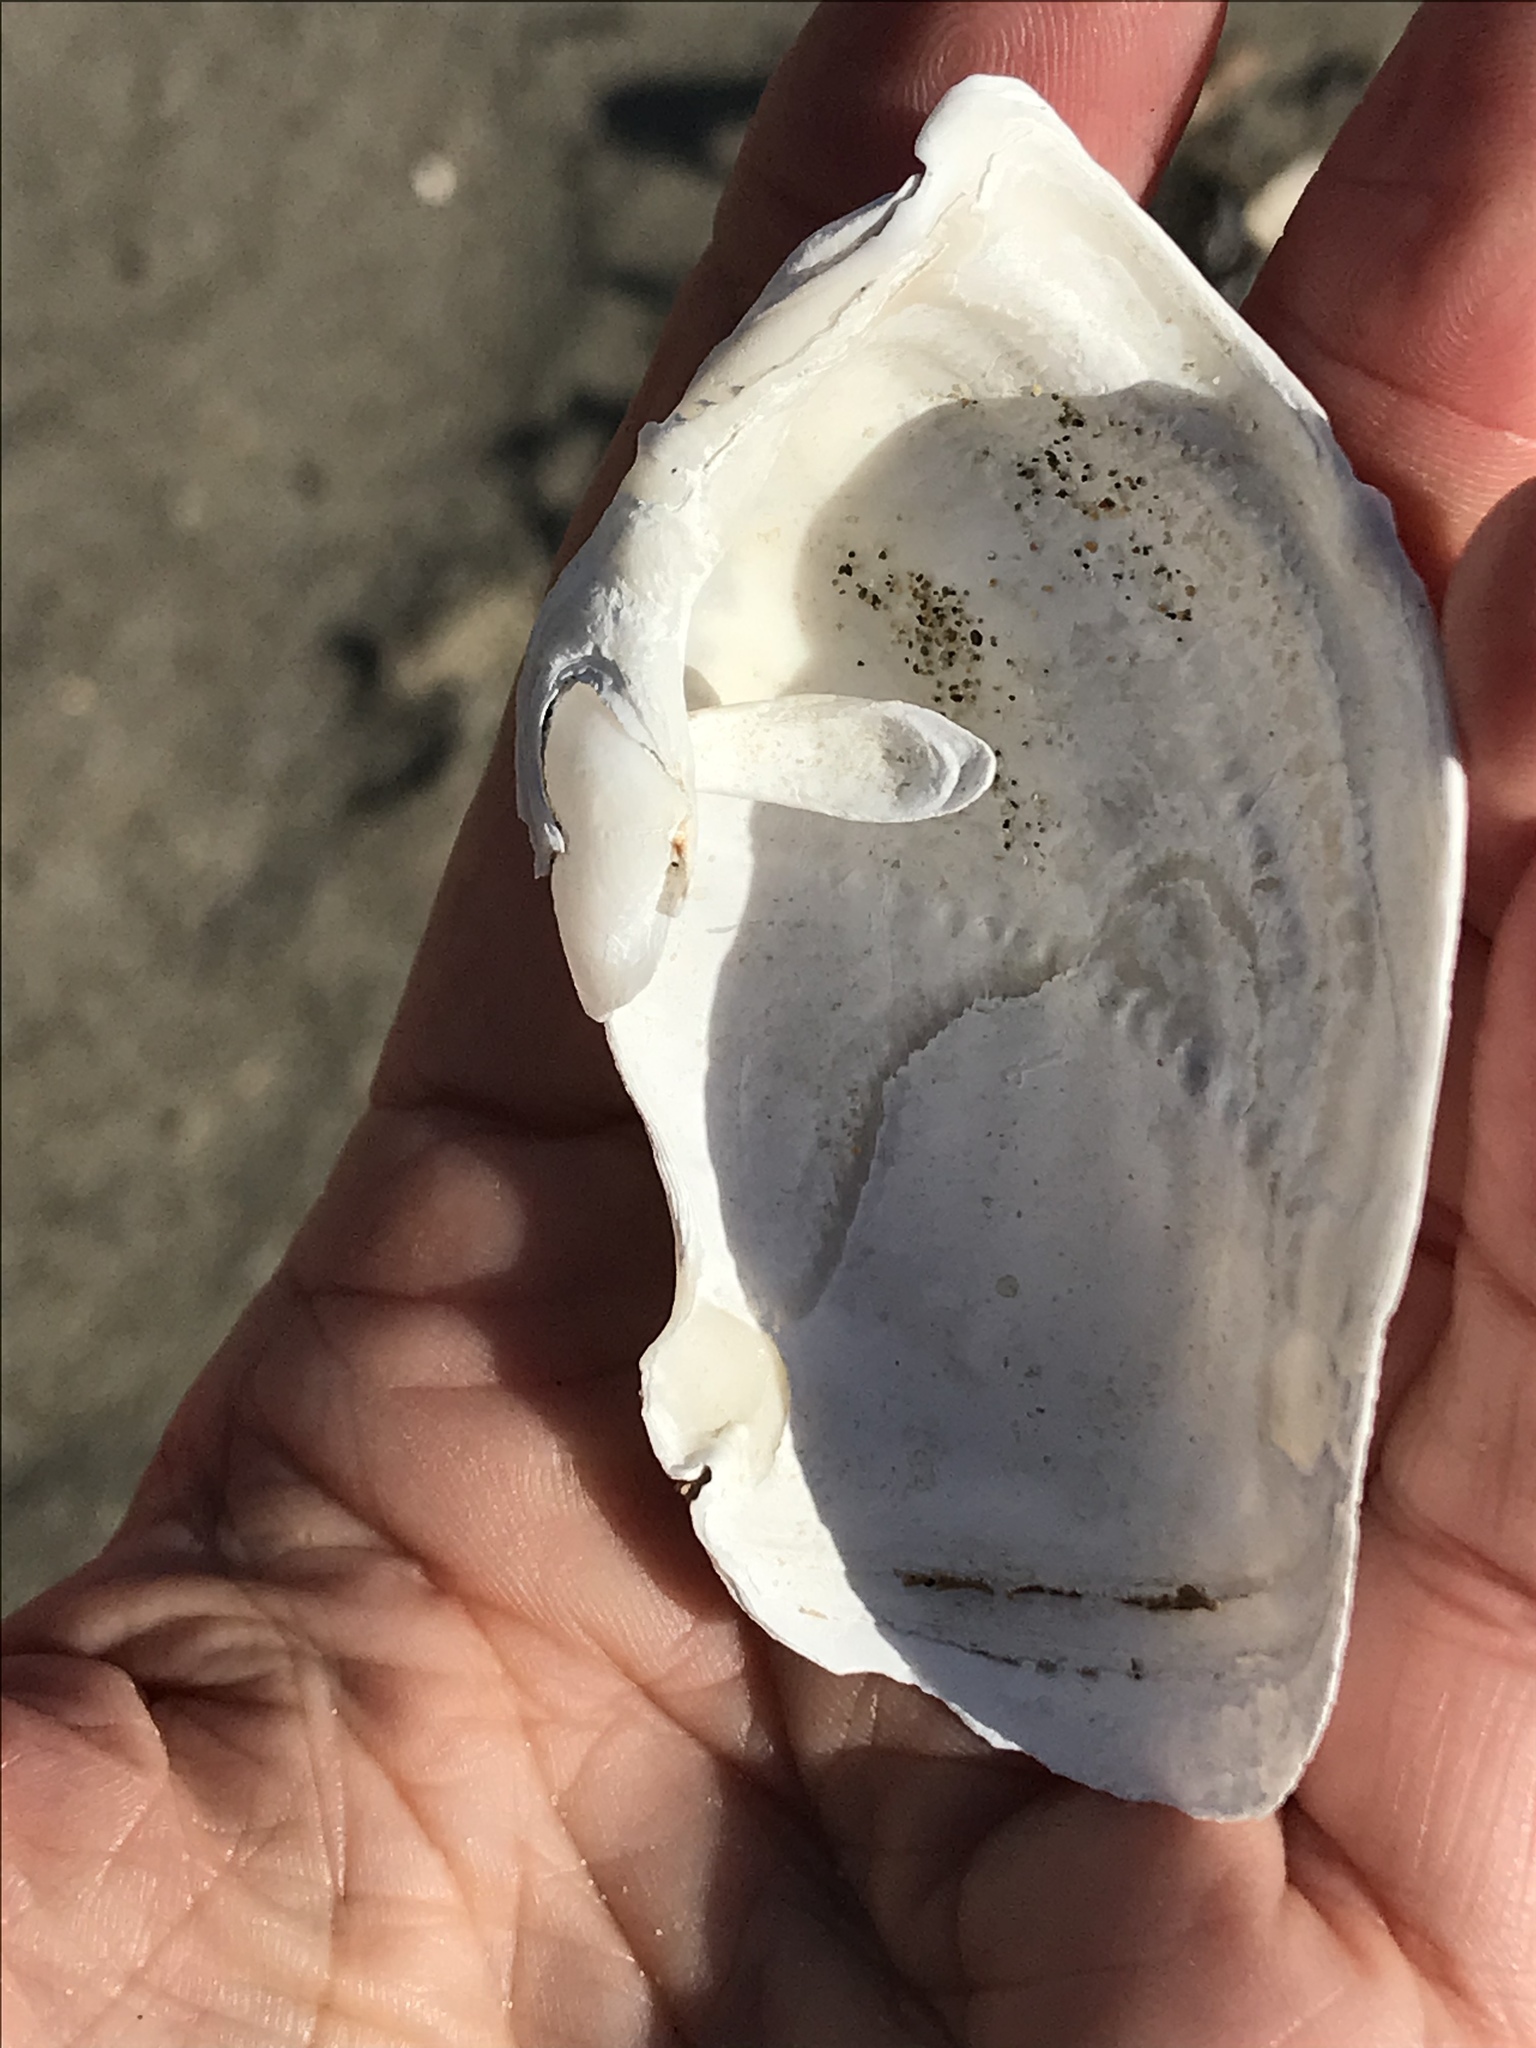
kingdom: Animalia
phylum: Mollusca
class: Bivalvia
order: Myida
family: Pholadidae
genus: Zirfaea
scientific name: Zirfaea pilsbryi
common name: Rough piddock
